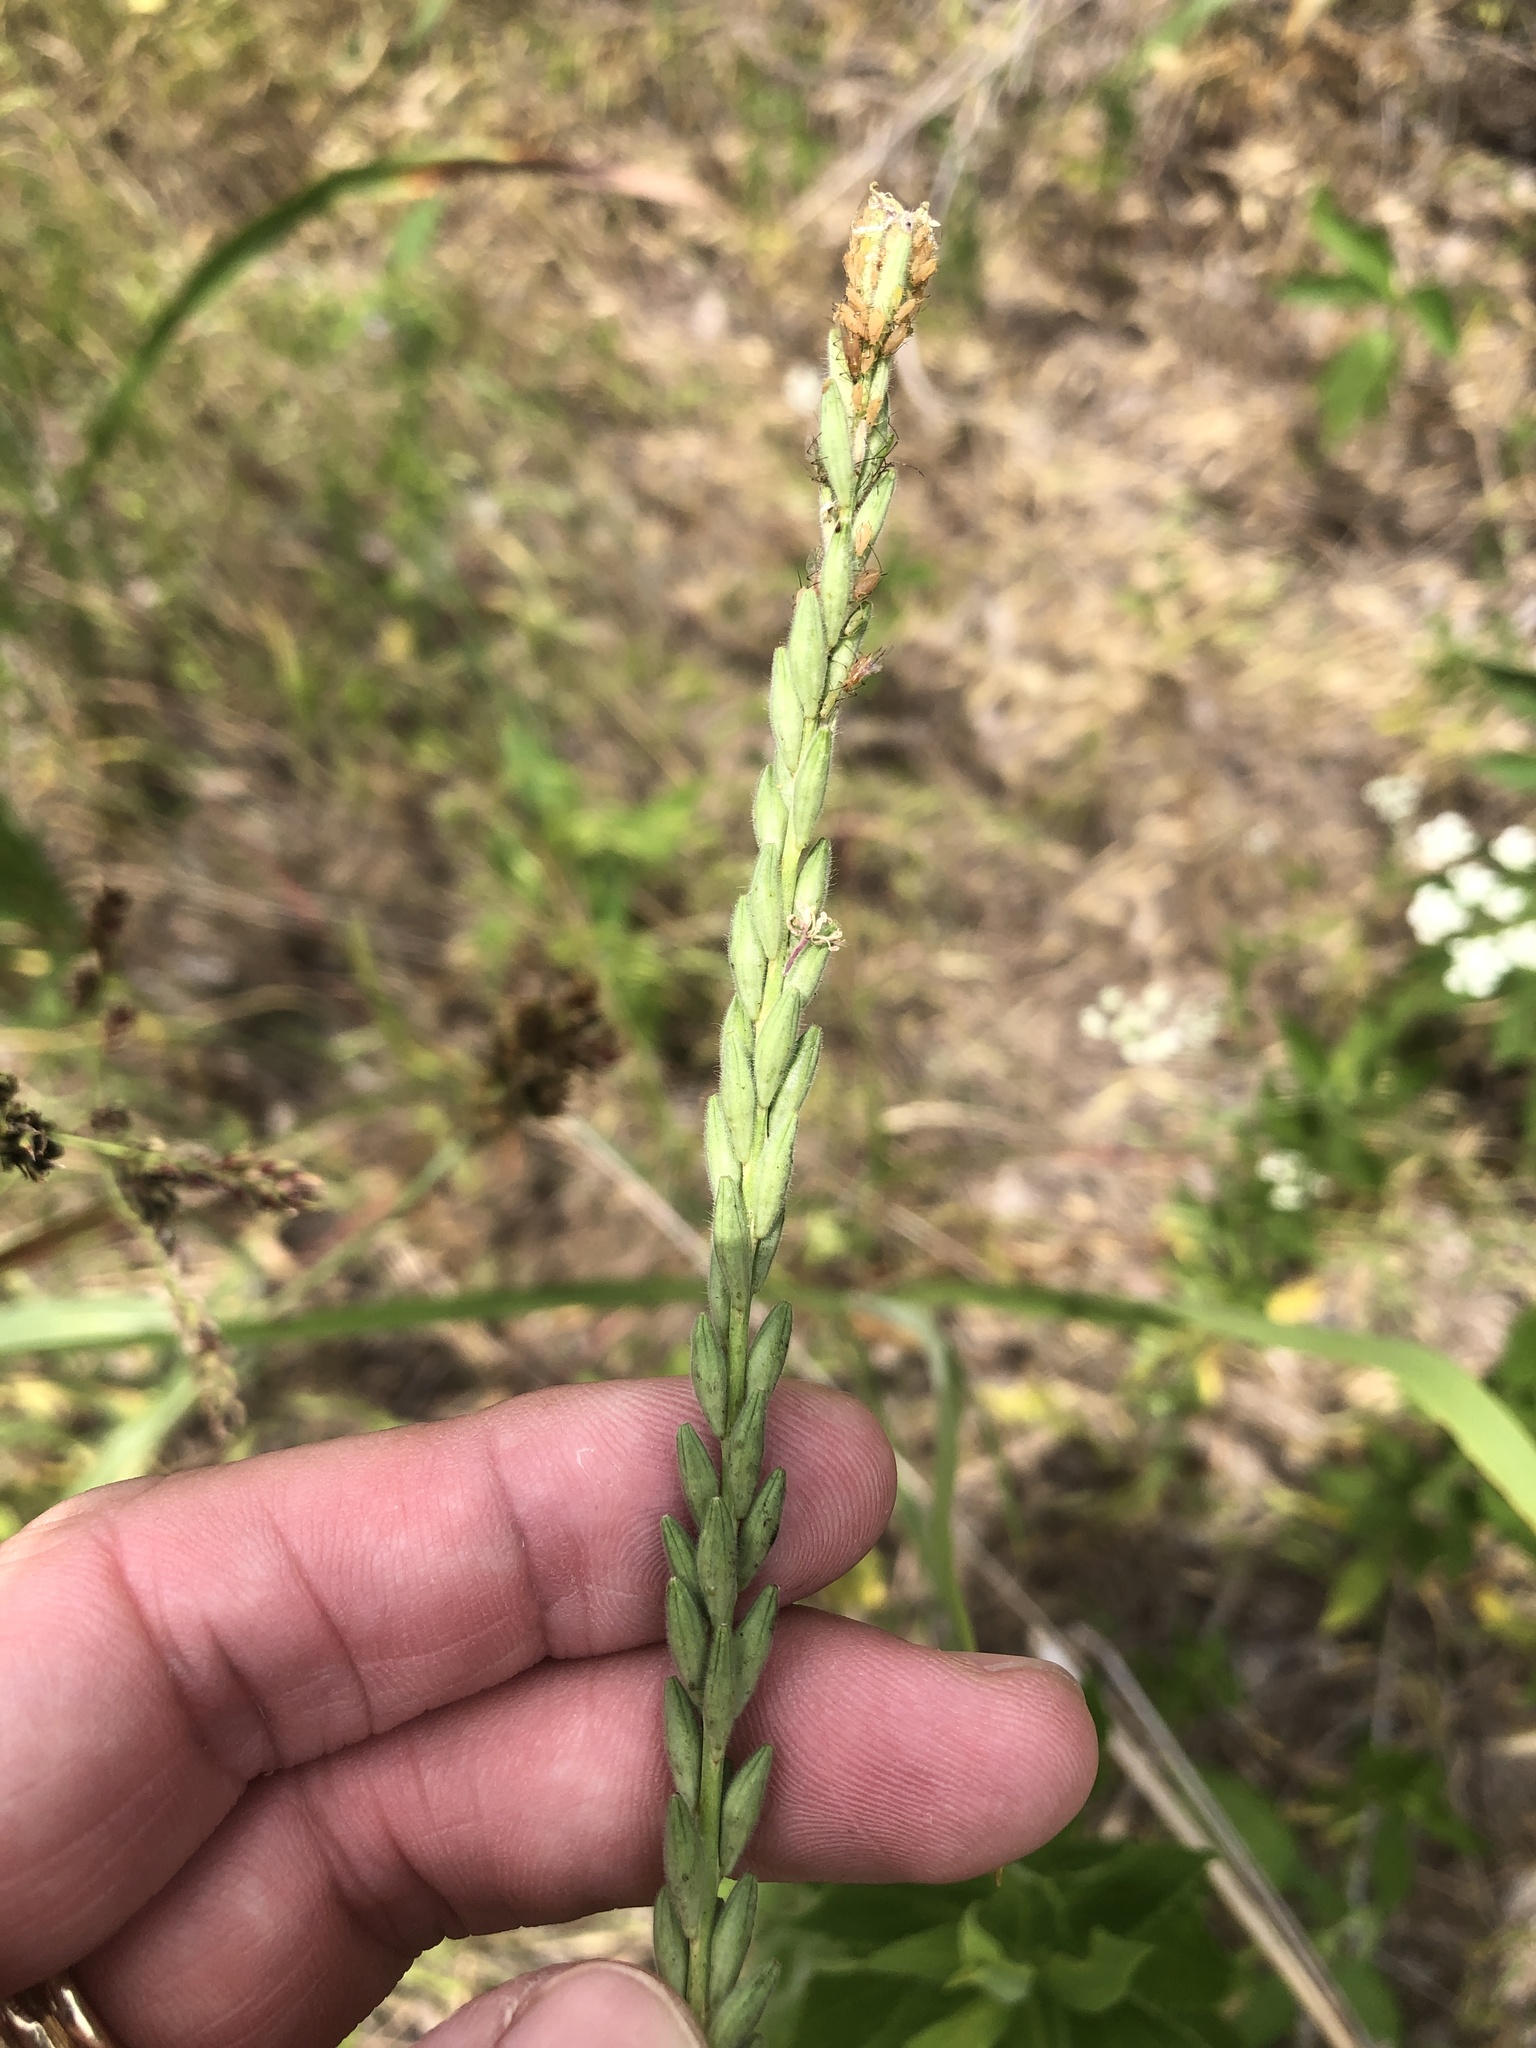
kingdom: Plantae
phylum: Tracheophyta
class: Magnoliopsida
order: Myrtales
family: Onagraceae
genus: Oenothera
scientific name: Oenothera curtiflora
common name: Velvetweed
